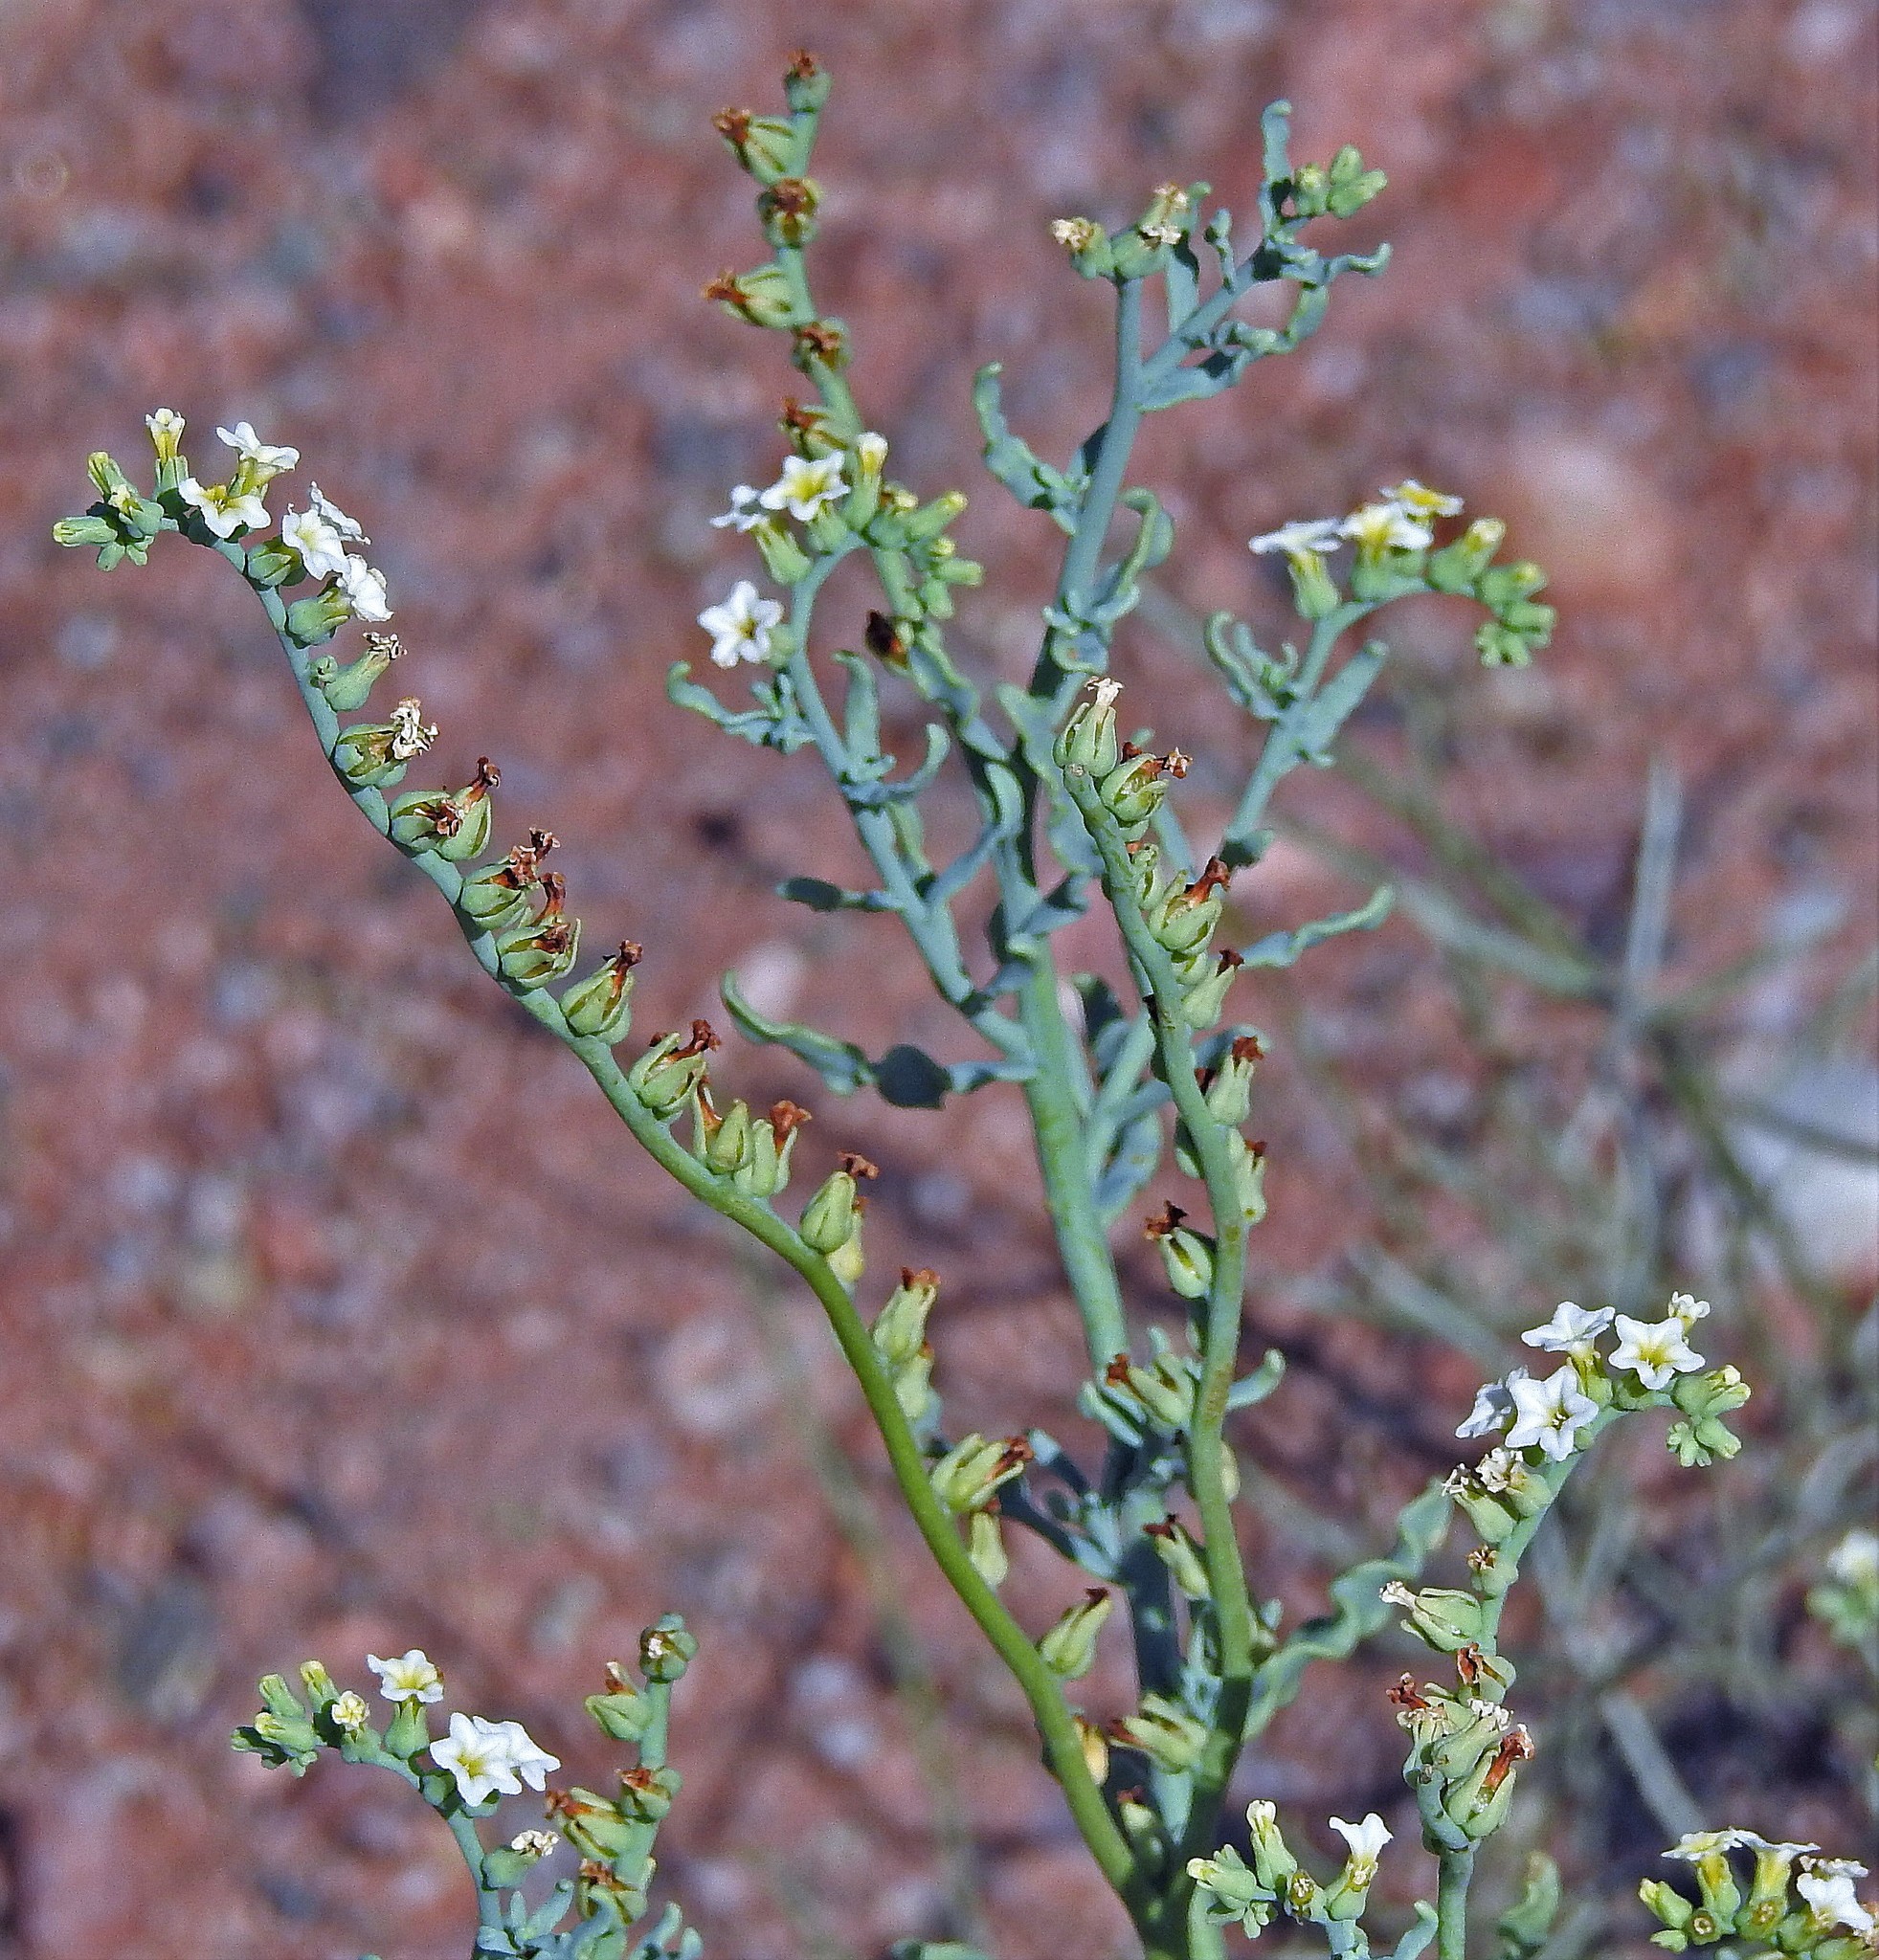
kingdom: Plantae
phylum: Tracheophyta
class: Magnoliopsida
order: Boraginales
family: Heliotropiaceae
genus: Heliotropium
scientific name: Heliotropium curassavicum
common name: Seaside heliotrope
